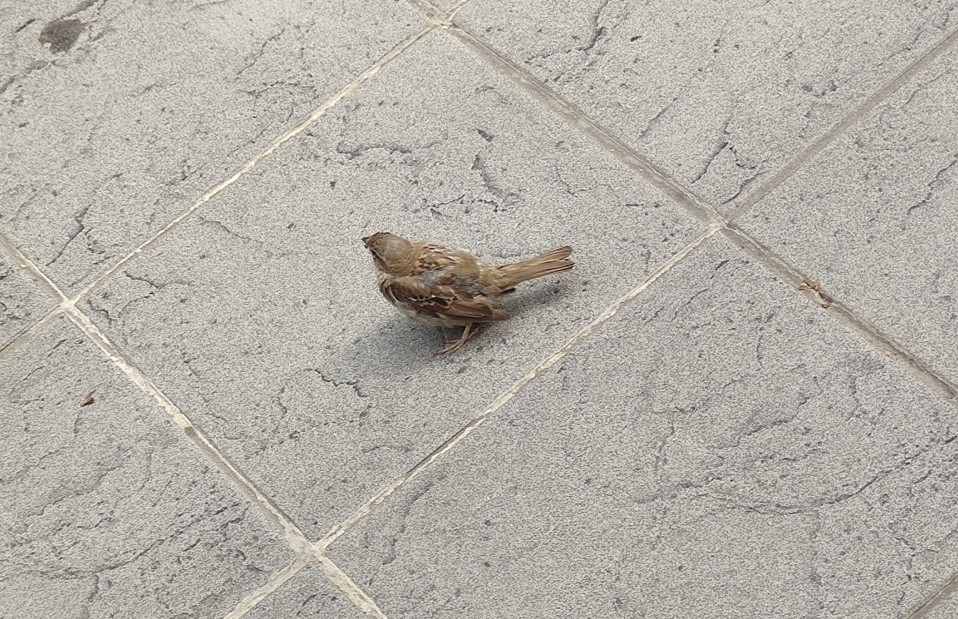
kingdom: Animalia
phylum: Chordata
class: Aves
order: Passeriformes
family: Passeridae
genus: Passer
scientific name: Passer domesticus
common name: House sparrow
